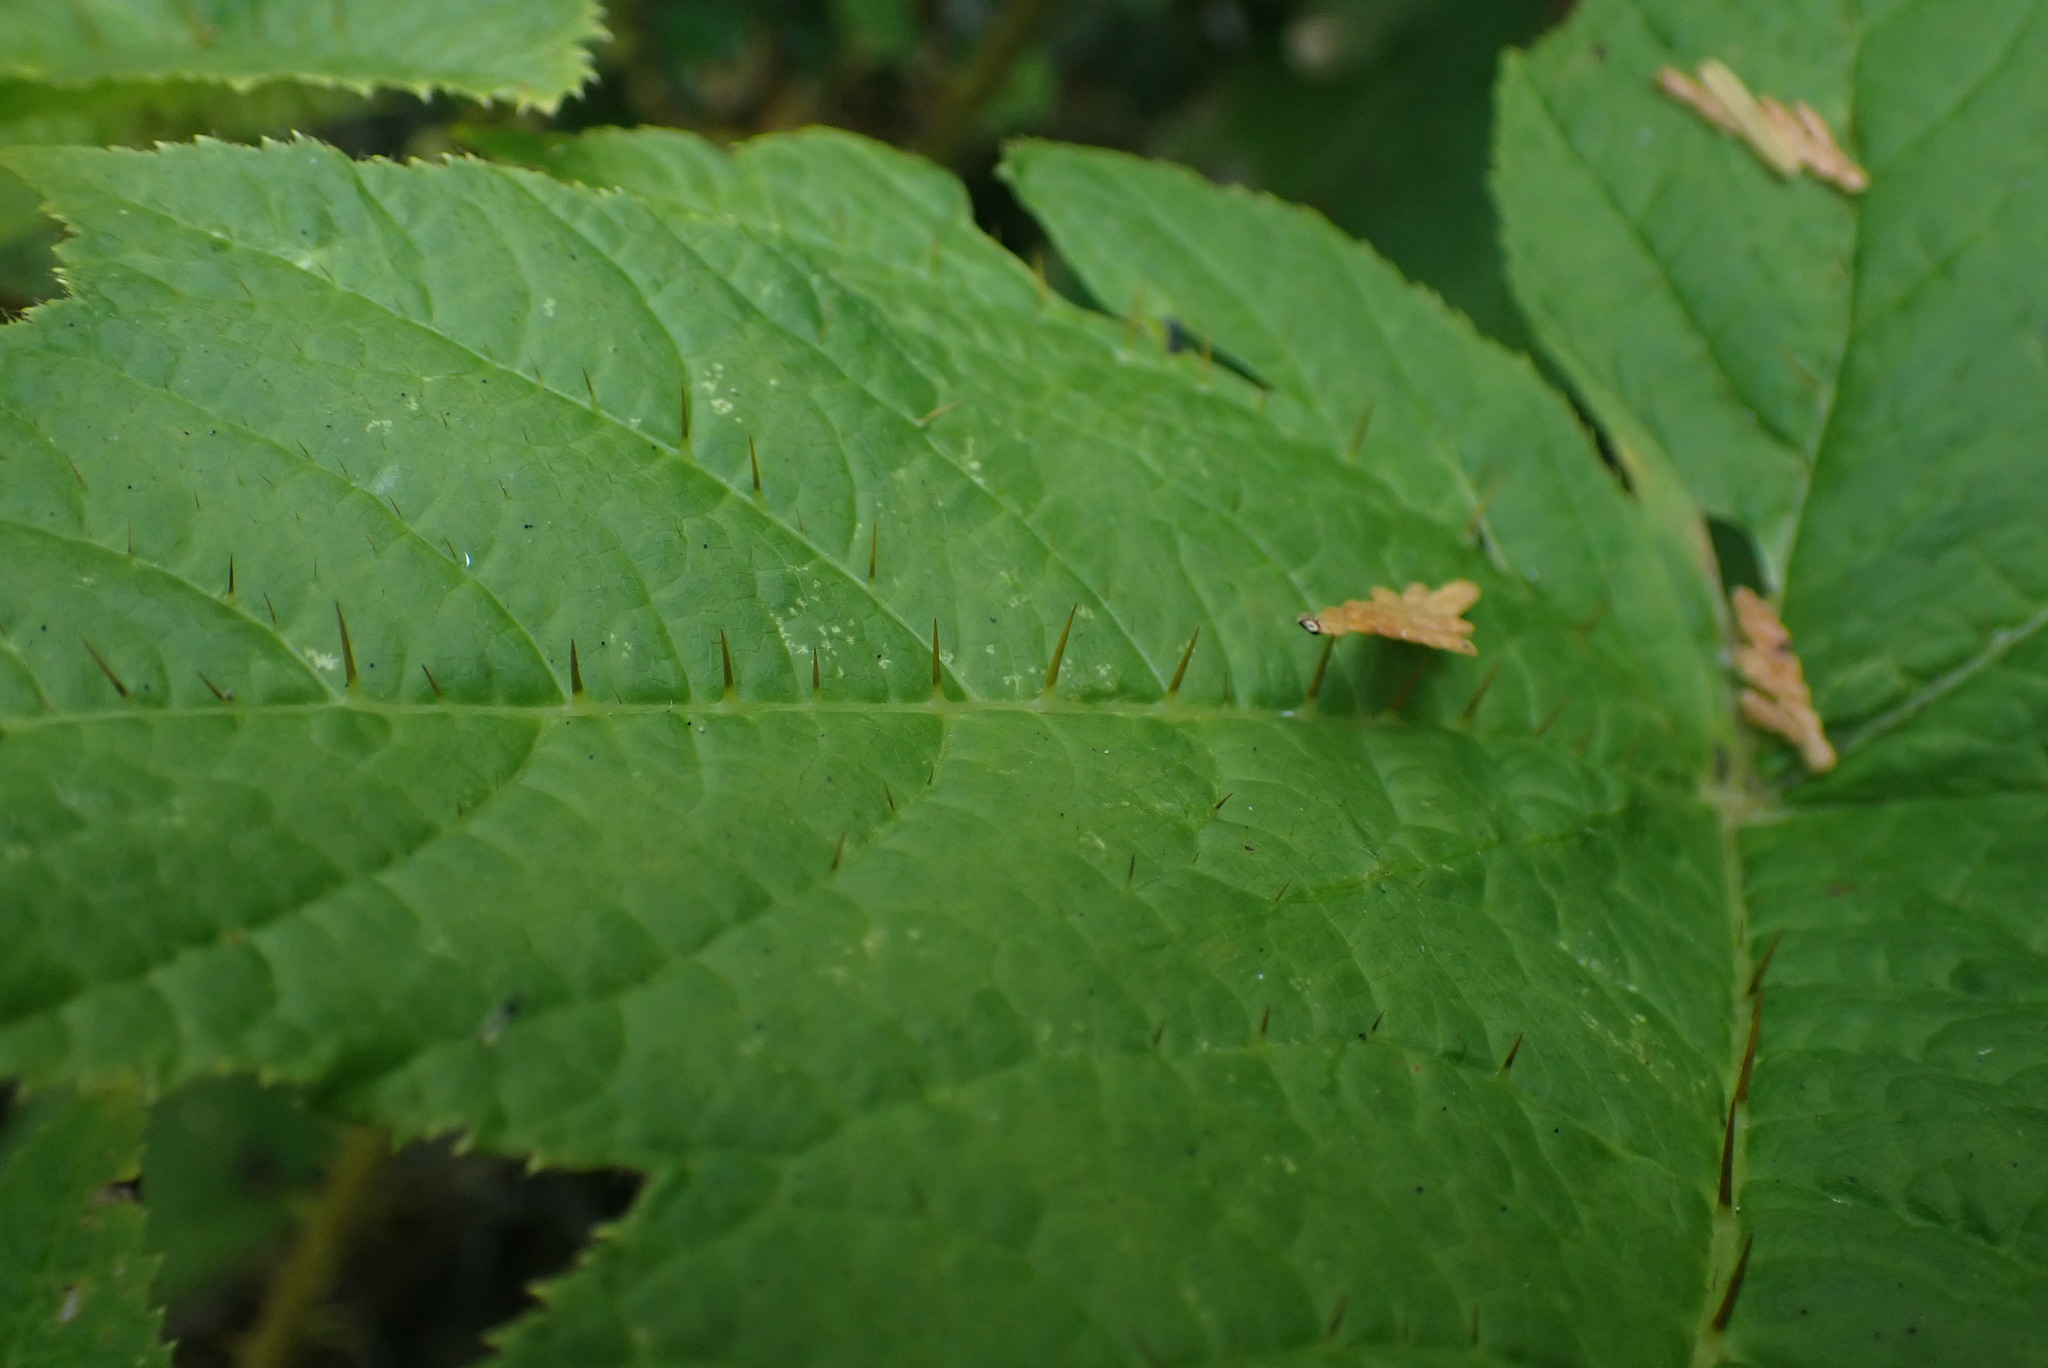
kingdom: Plantae
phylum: Tracheophyta
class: Magnoliopsida
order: Apiales
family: Araliaceae
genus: Oplopanax
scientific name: Oplopanax horridus
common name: Devil's walking-stick
